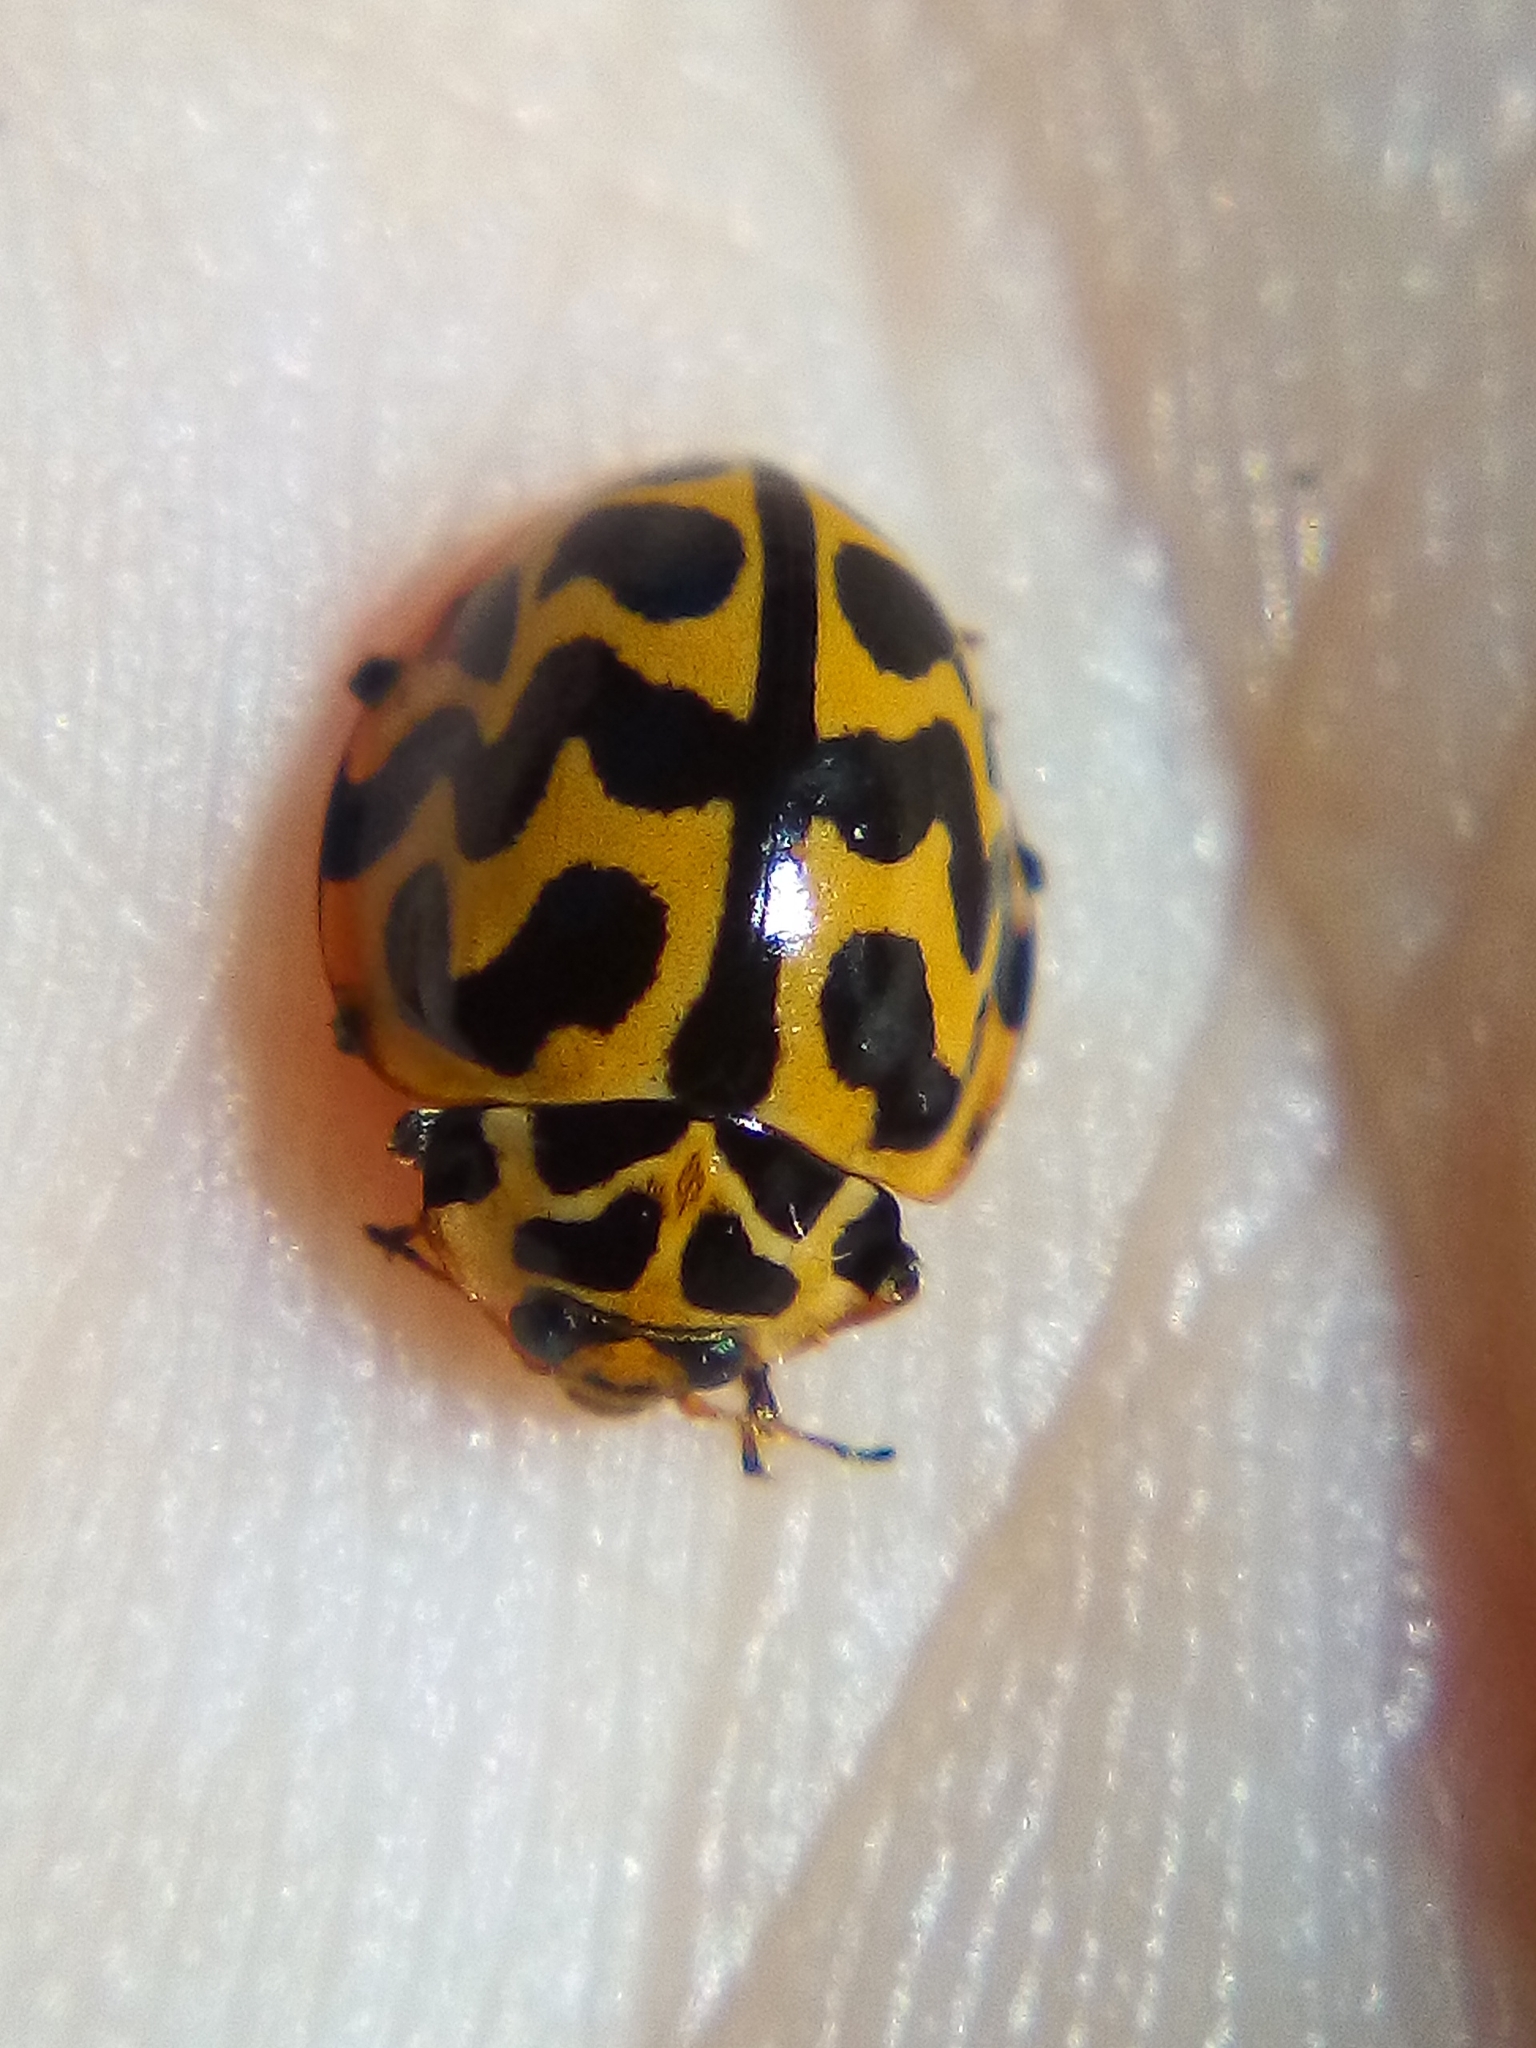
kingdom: Animalia
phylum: Arthropoda
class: Insecta
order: Coleoptera
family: Coccinellidae
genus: Cleobora
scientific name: Cleobora
